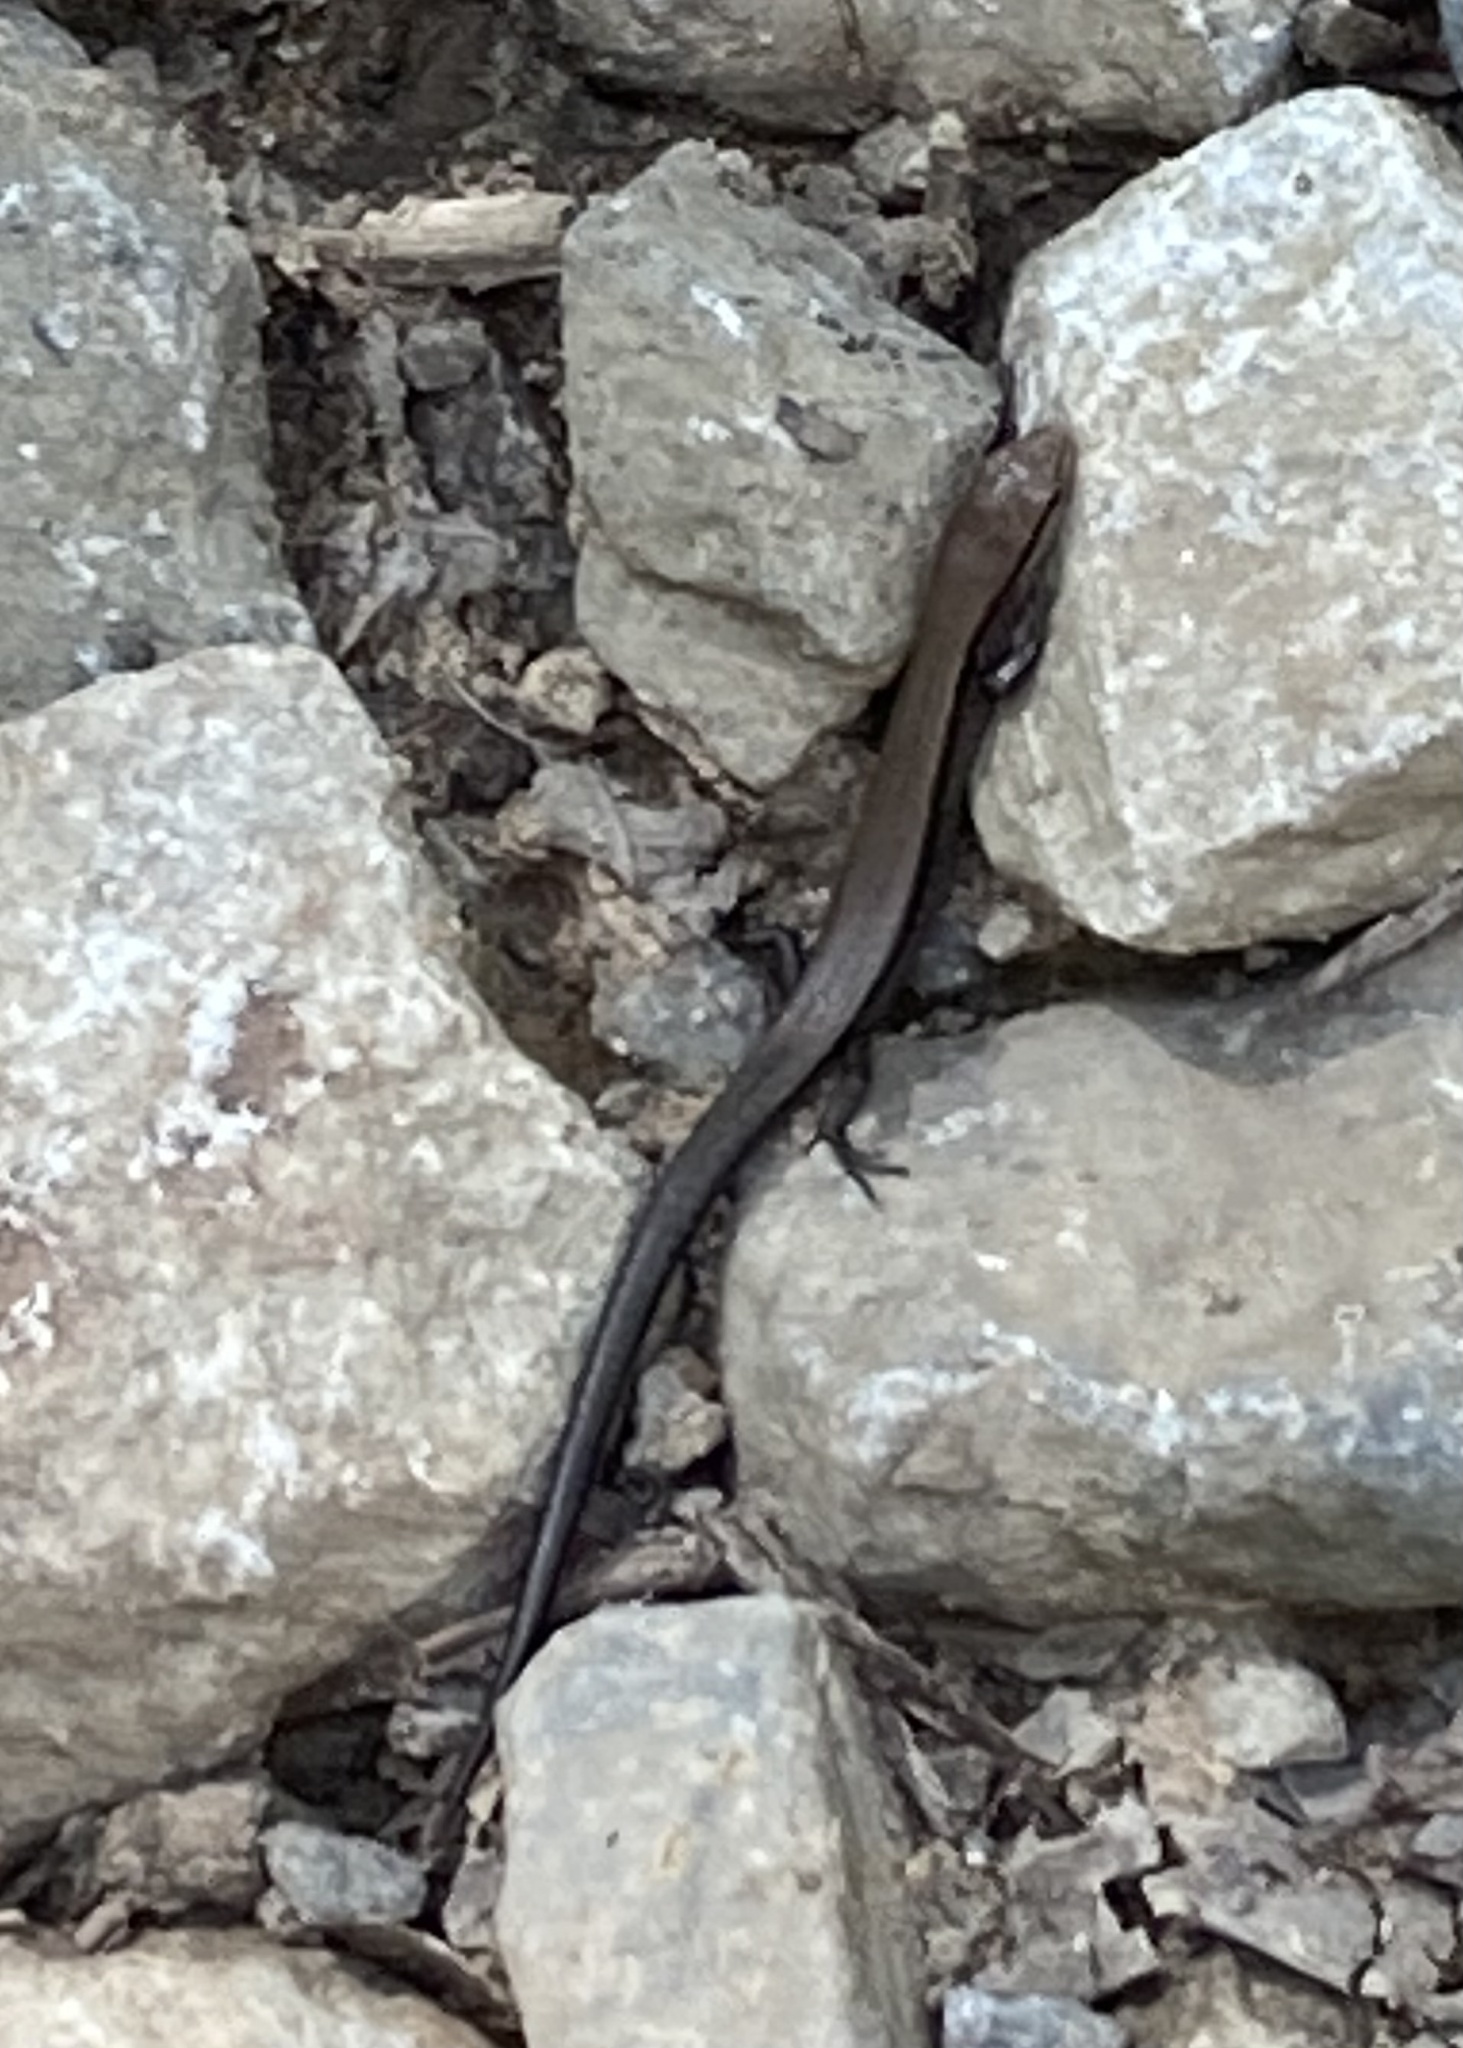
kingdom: Animalia
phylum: Chordata
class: Squamata
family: Scincidae
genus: Scincella
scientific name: Scincella lateralis
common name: Ground skink
